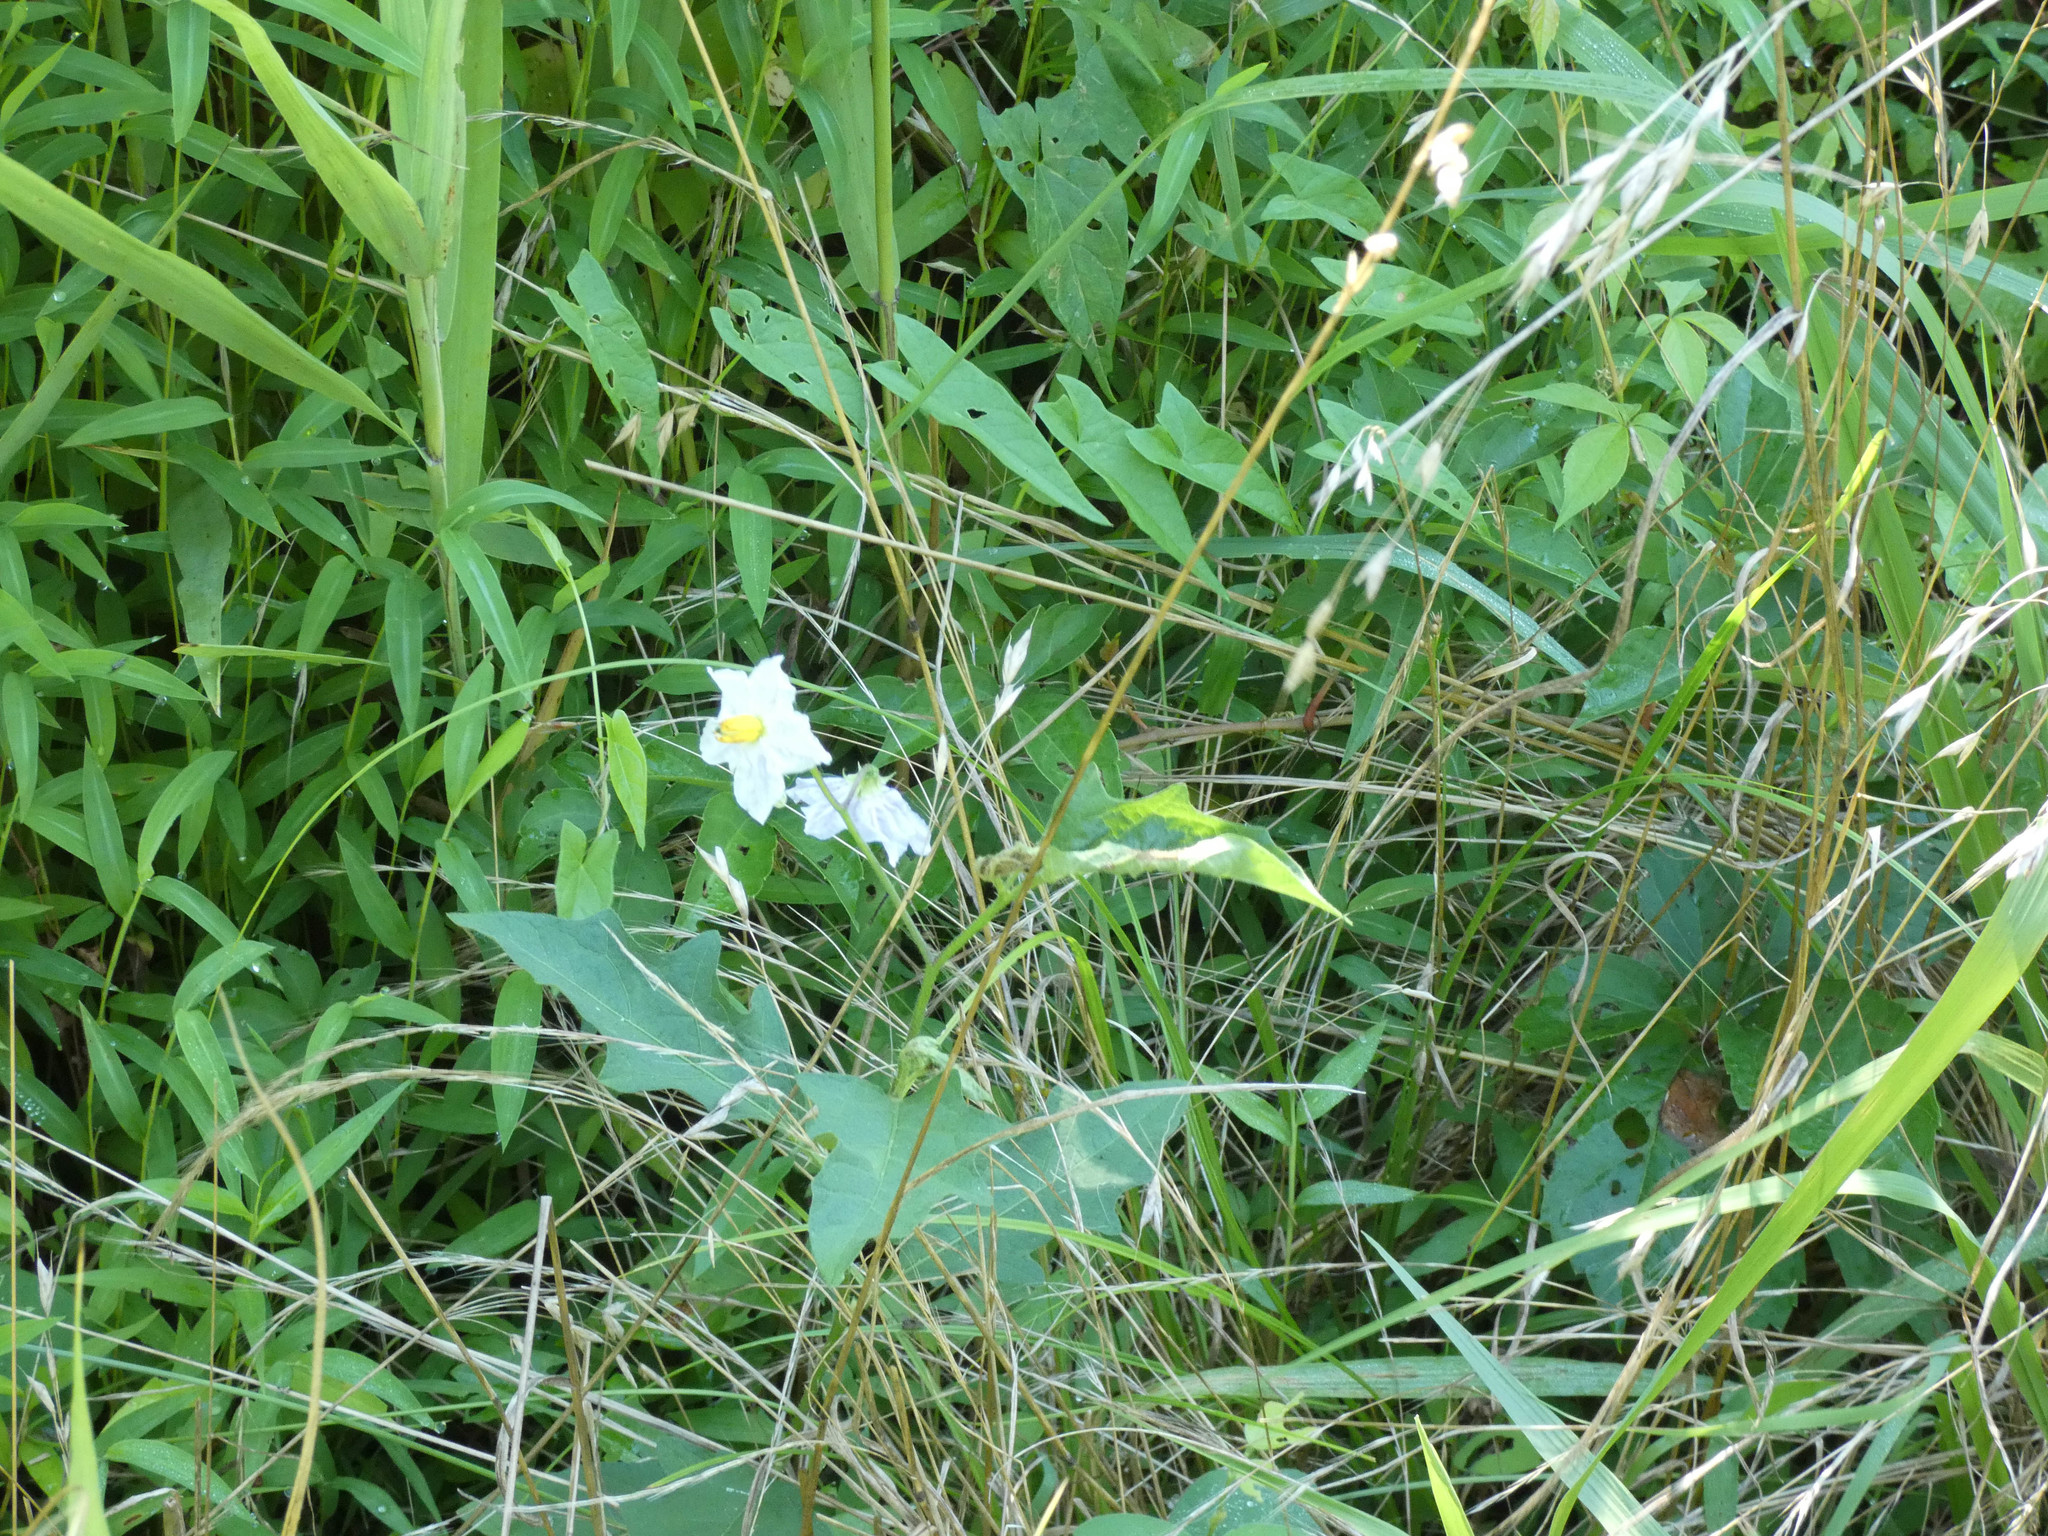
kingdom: Plantae
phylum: Tracheophyta
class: Magnoliopsida
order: Solanales
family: Solanaceae
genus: Solanum
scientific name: Solanum carolinense
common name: Horse-nettle
